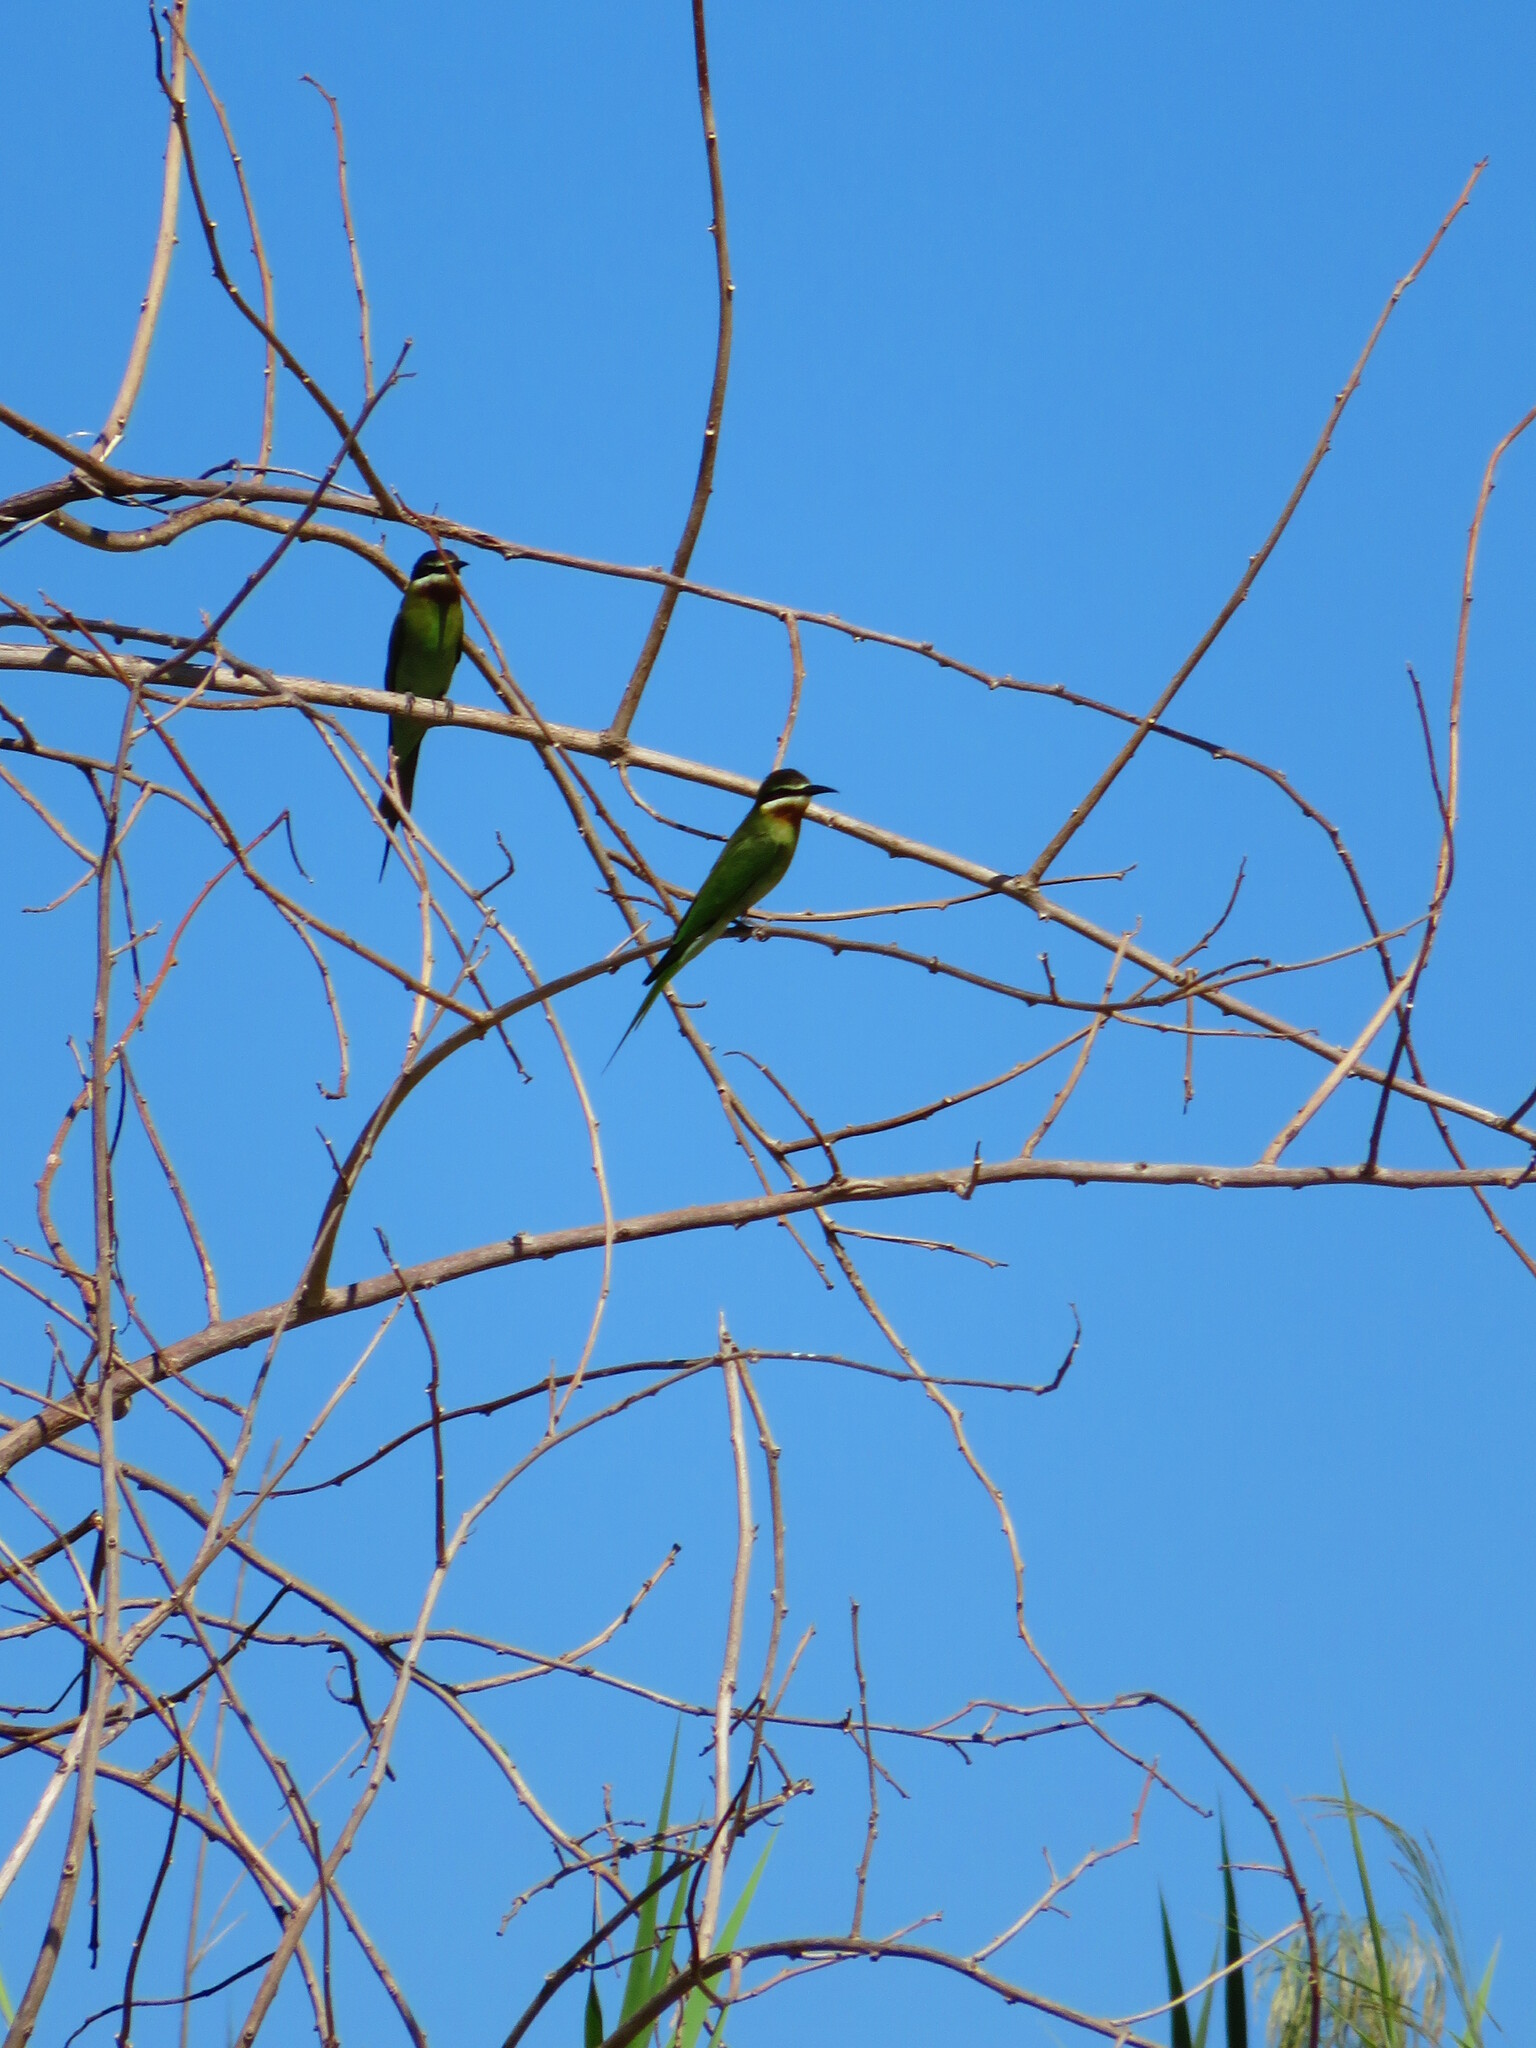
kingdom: Animalia
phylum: Chordata
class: Aves
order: Coraciiformes
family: Meropidae
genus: Merops
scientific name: Merops superciliosus
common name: Olive bee-eater
